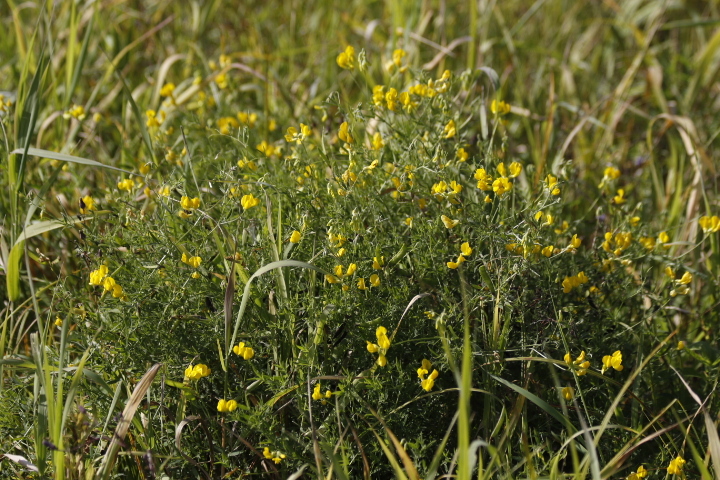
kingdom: Plantae
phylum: Tracheophyta
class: Magnoliopsida
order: Fabales
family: Fabaceae
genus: Lathyrus
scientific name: Lathyrus pratensis
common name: Meadow vetchling
